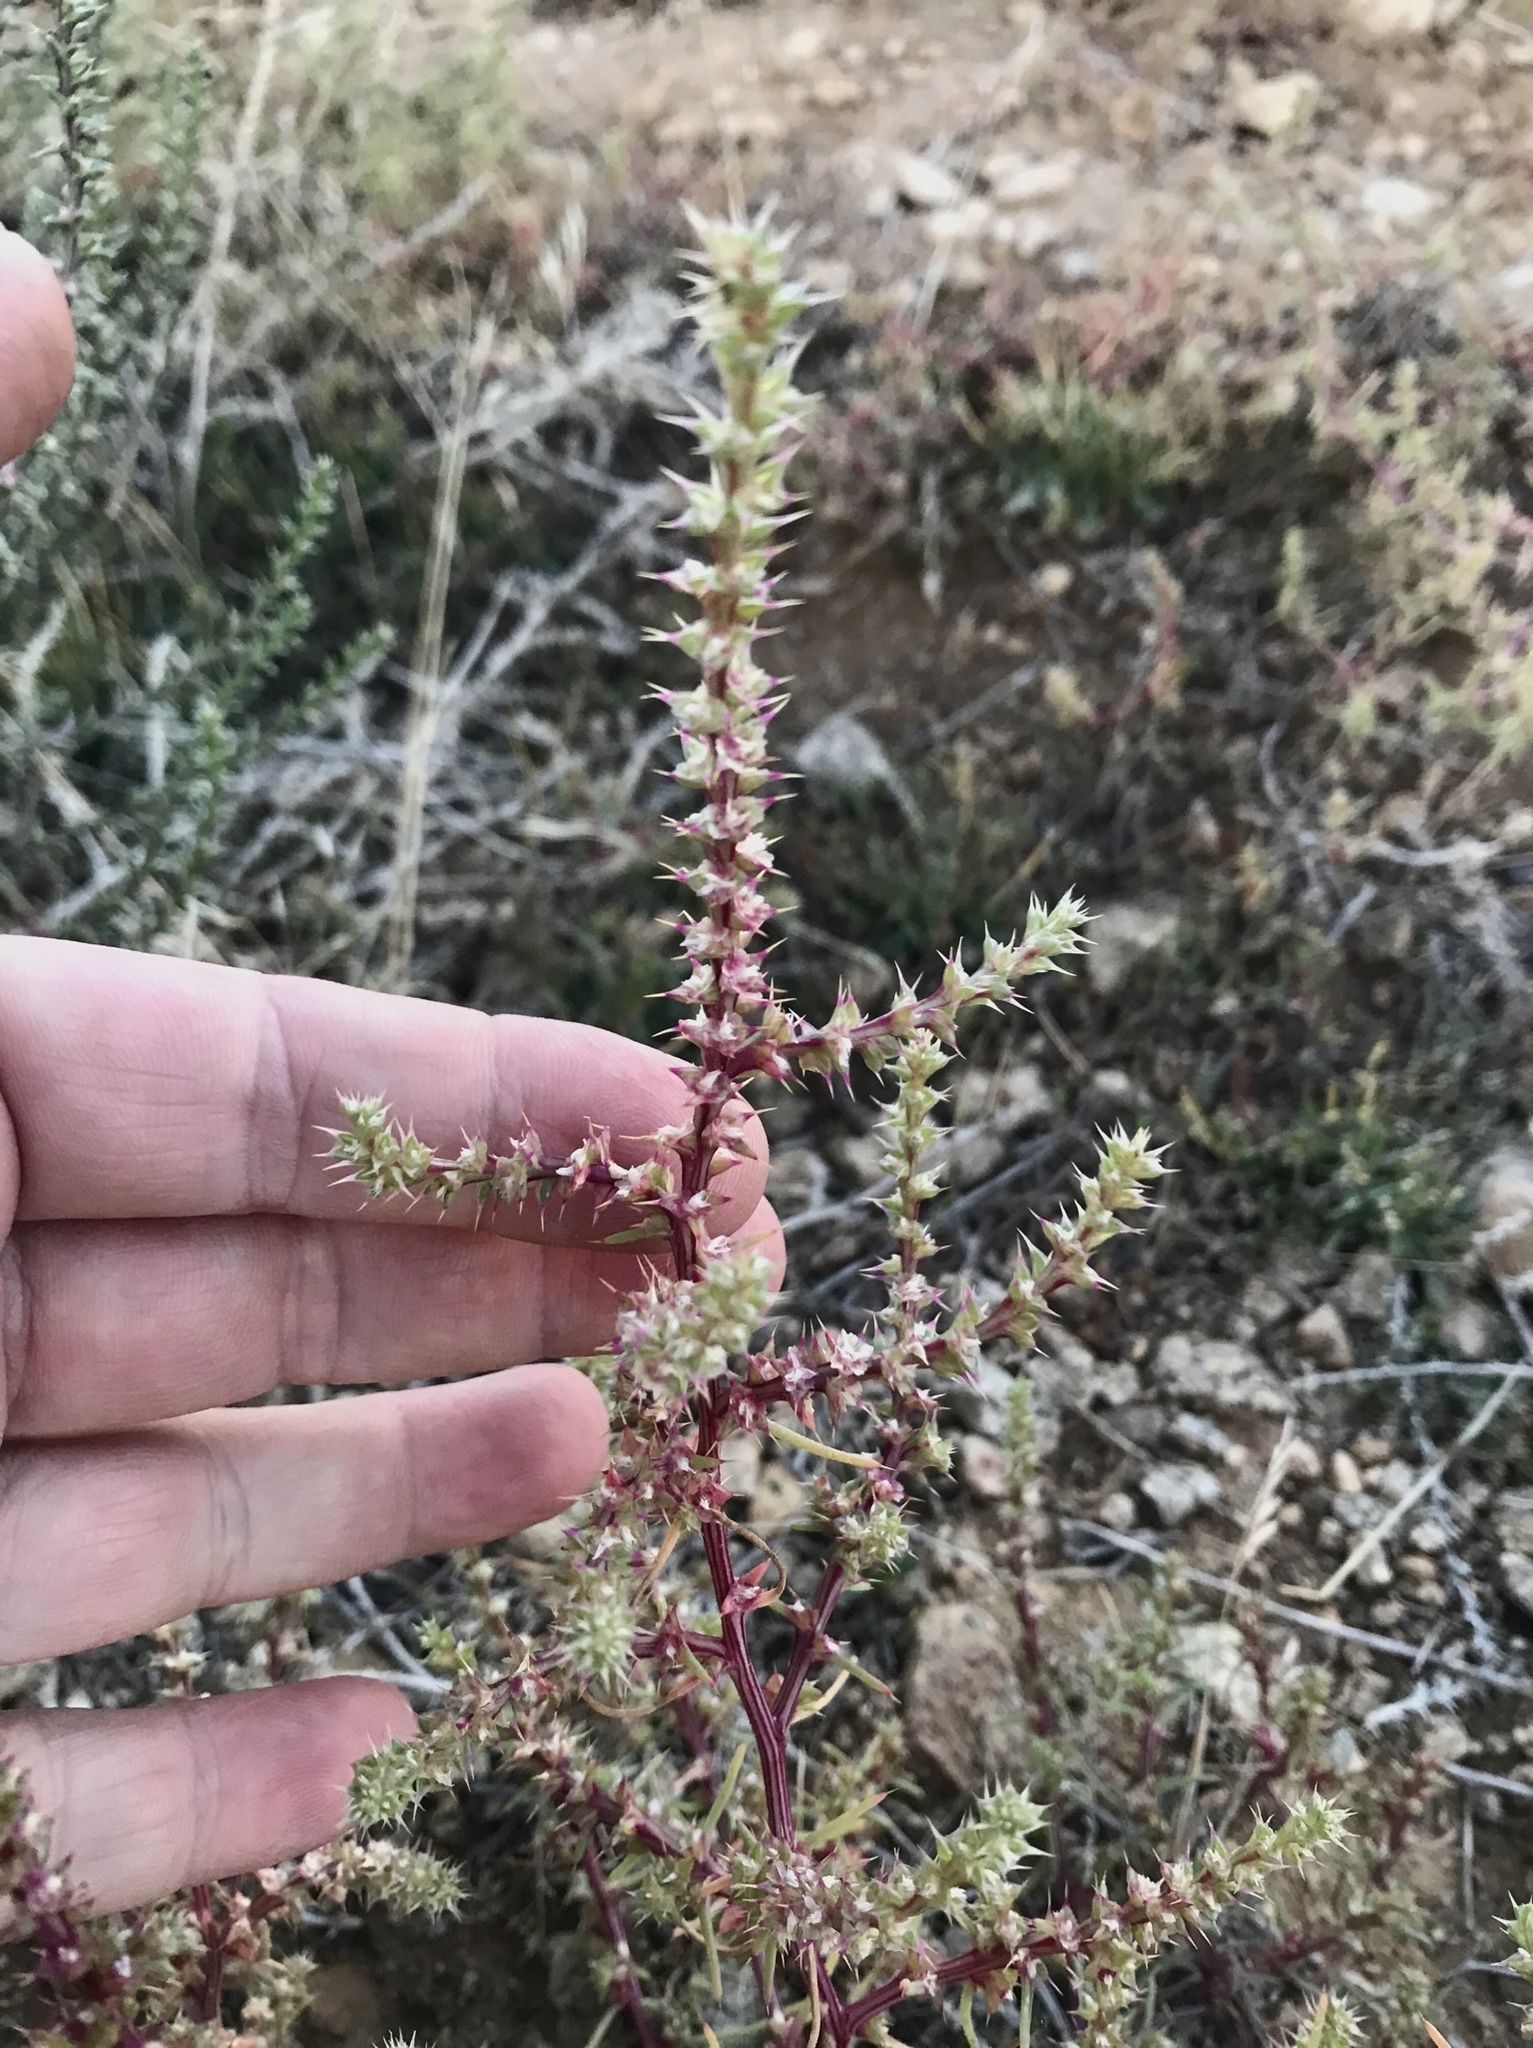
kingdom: Plantae
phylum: Tracheophyta
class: Magnoliopsida
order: Caryophyllales
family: Amaranthaceae
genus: Salsola
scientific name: Salsola paulsenii
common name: Barbwire russian thistle
